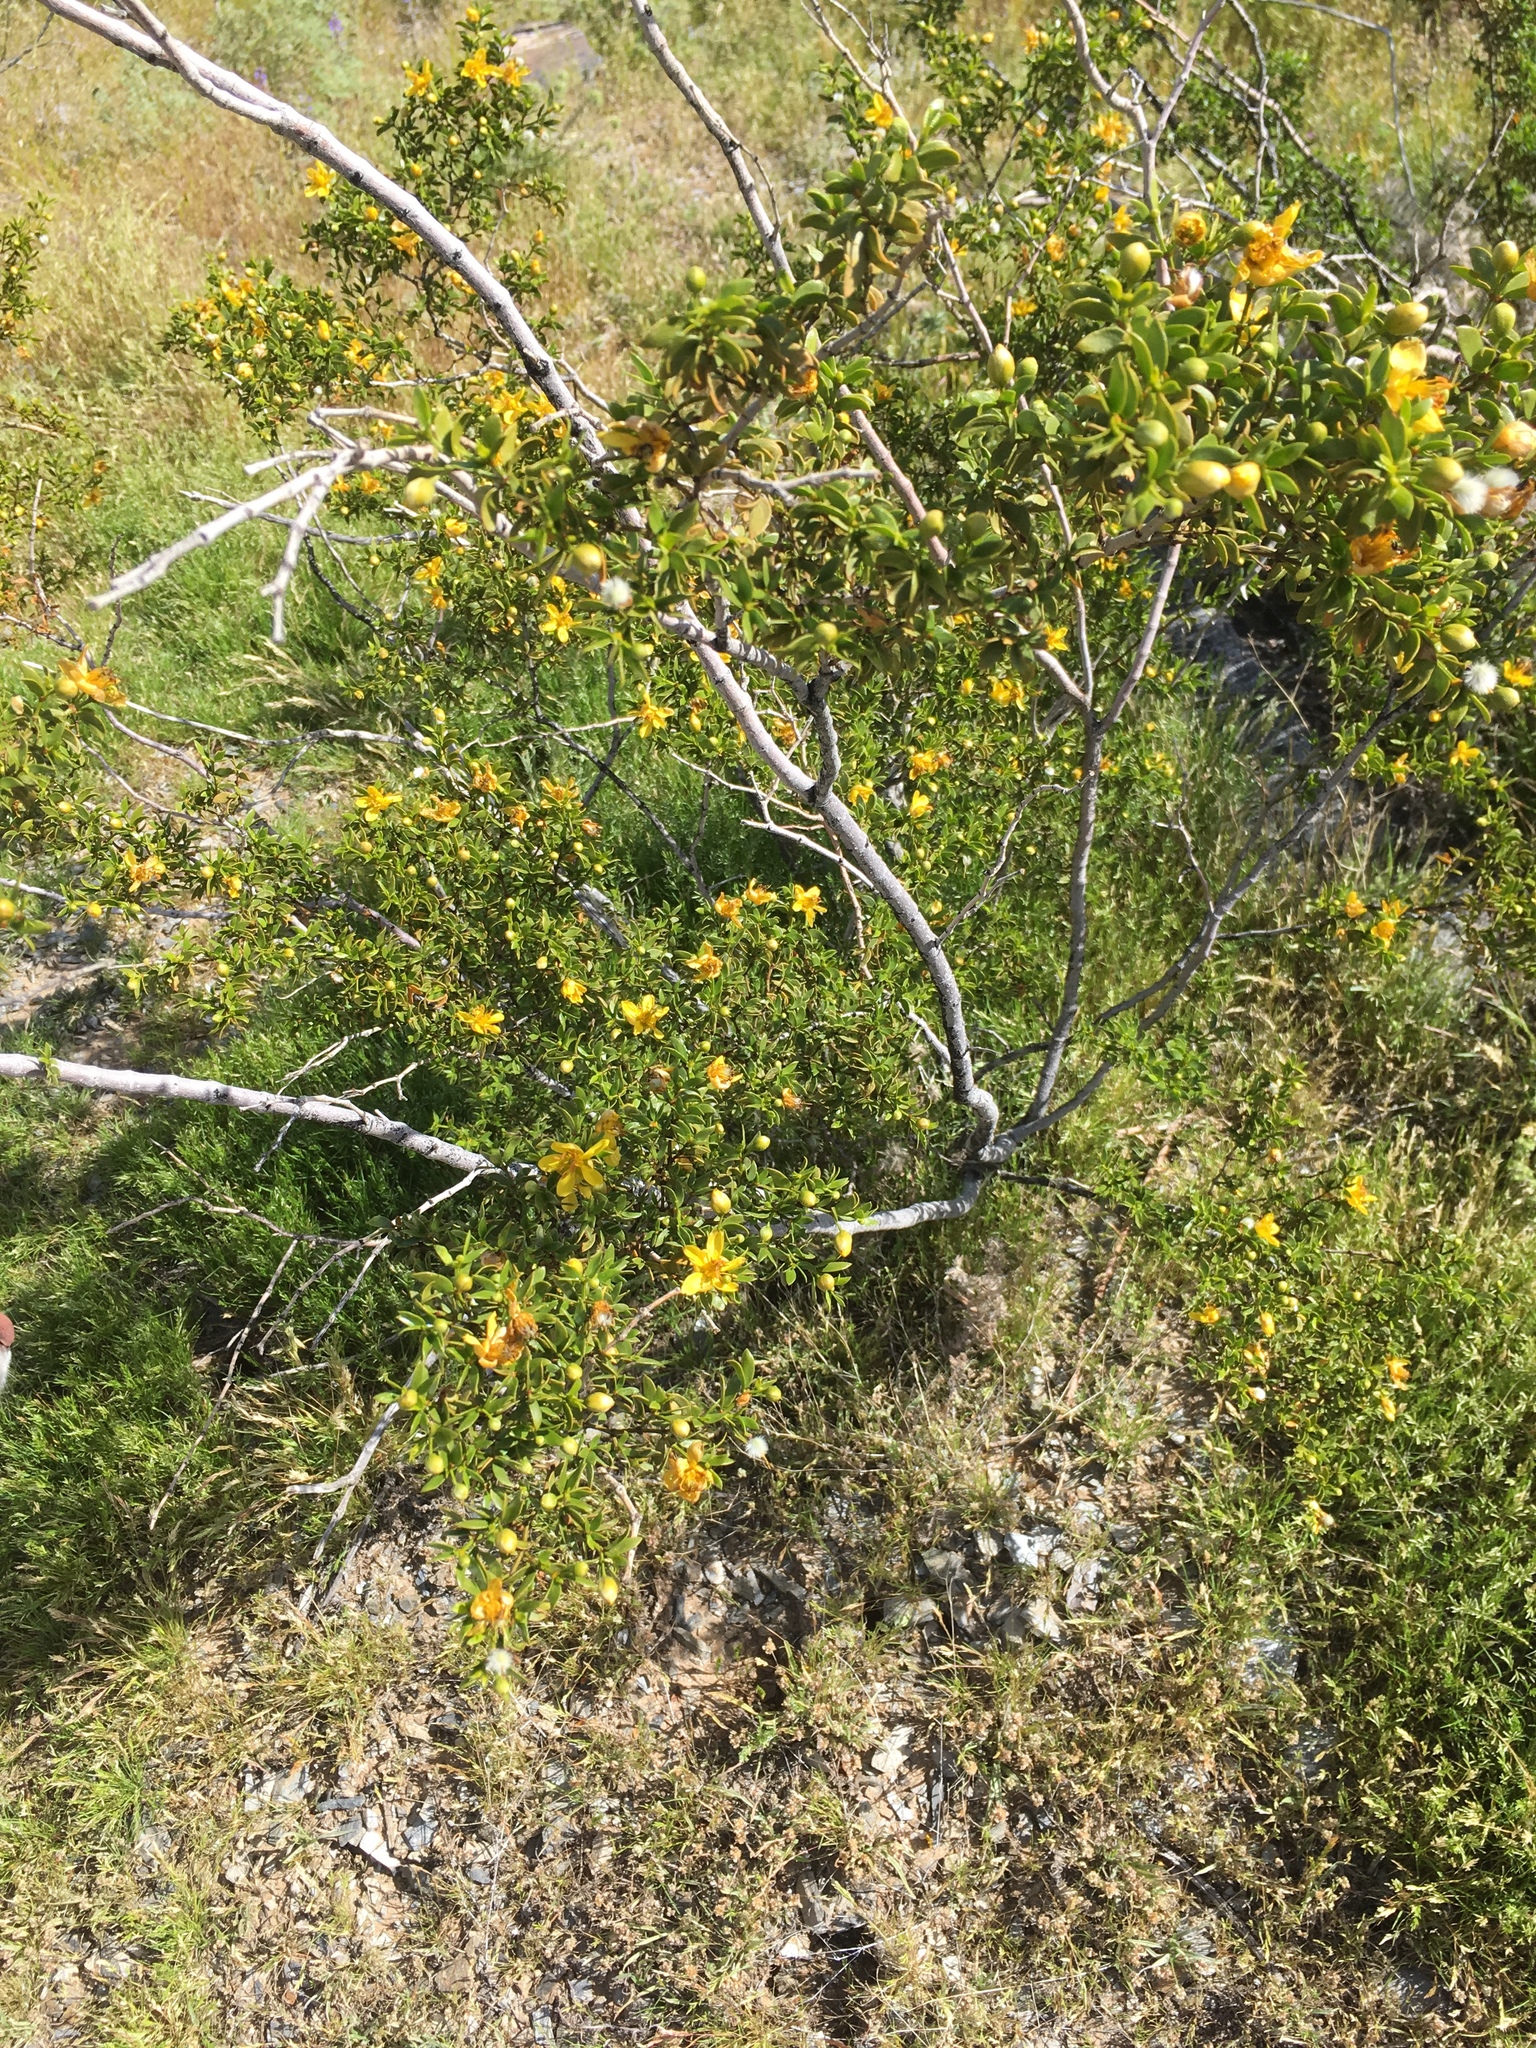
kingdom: Plantae
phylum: Tracheophyta
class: Magnoliopsida
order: Zygophyllales
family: Zygophyllaceae
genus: Larrea
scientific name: Larrea tridentata
